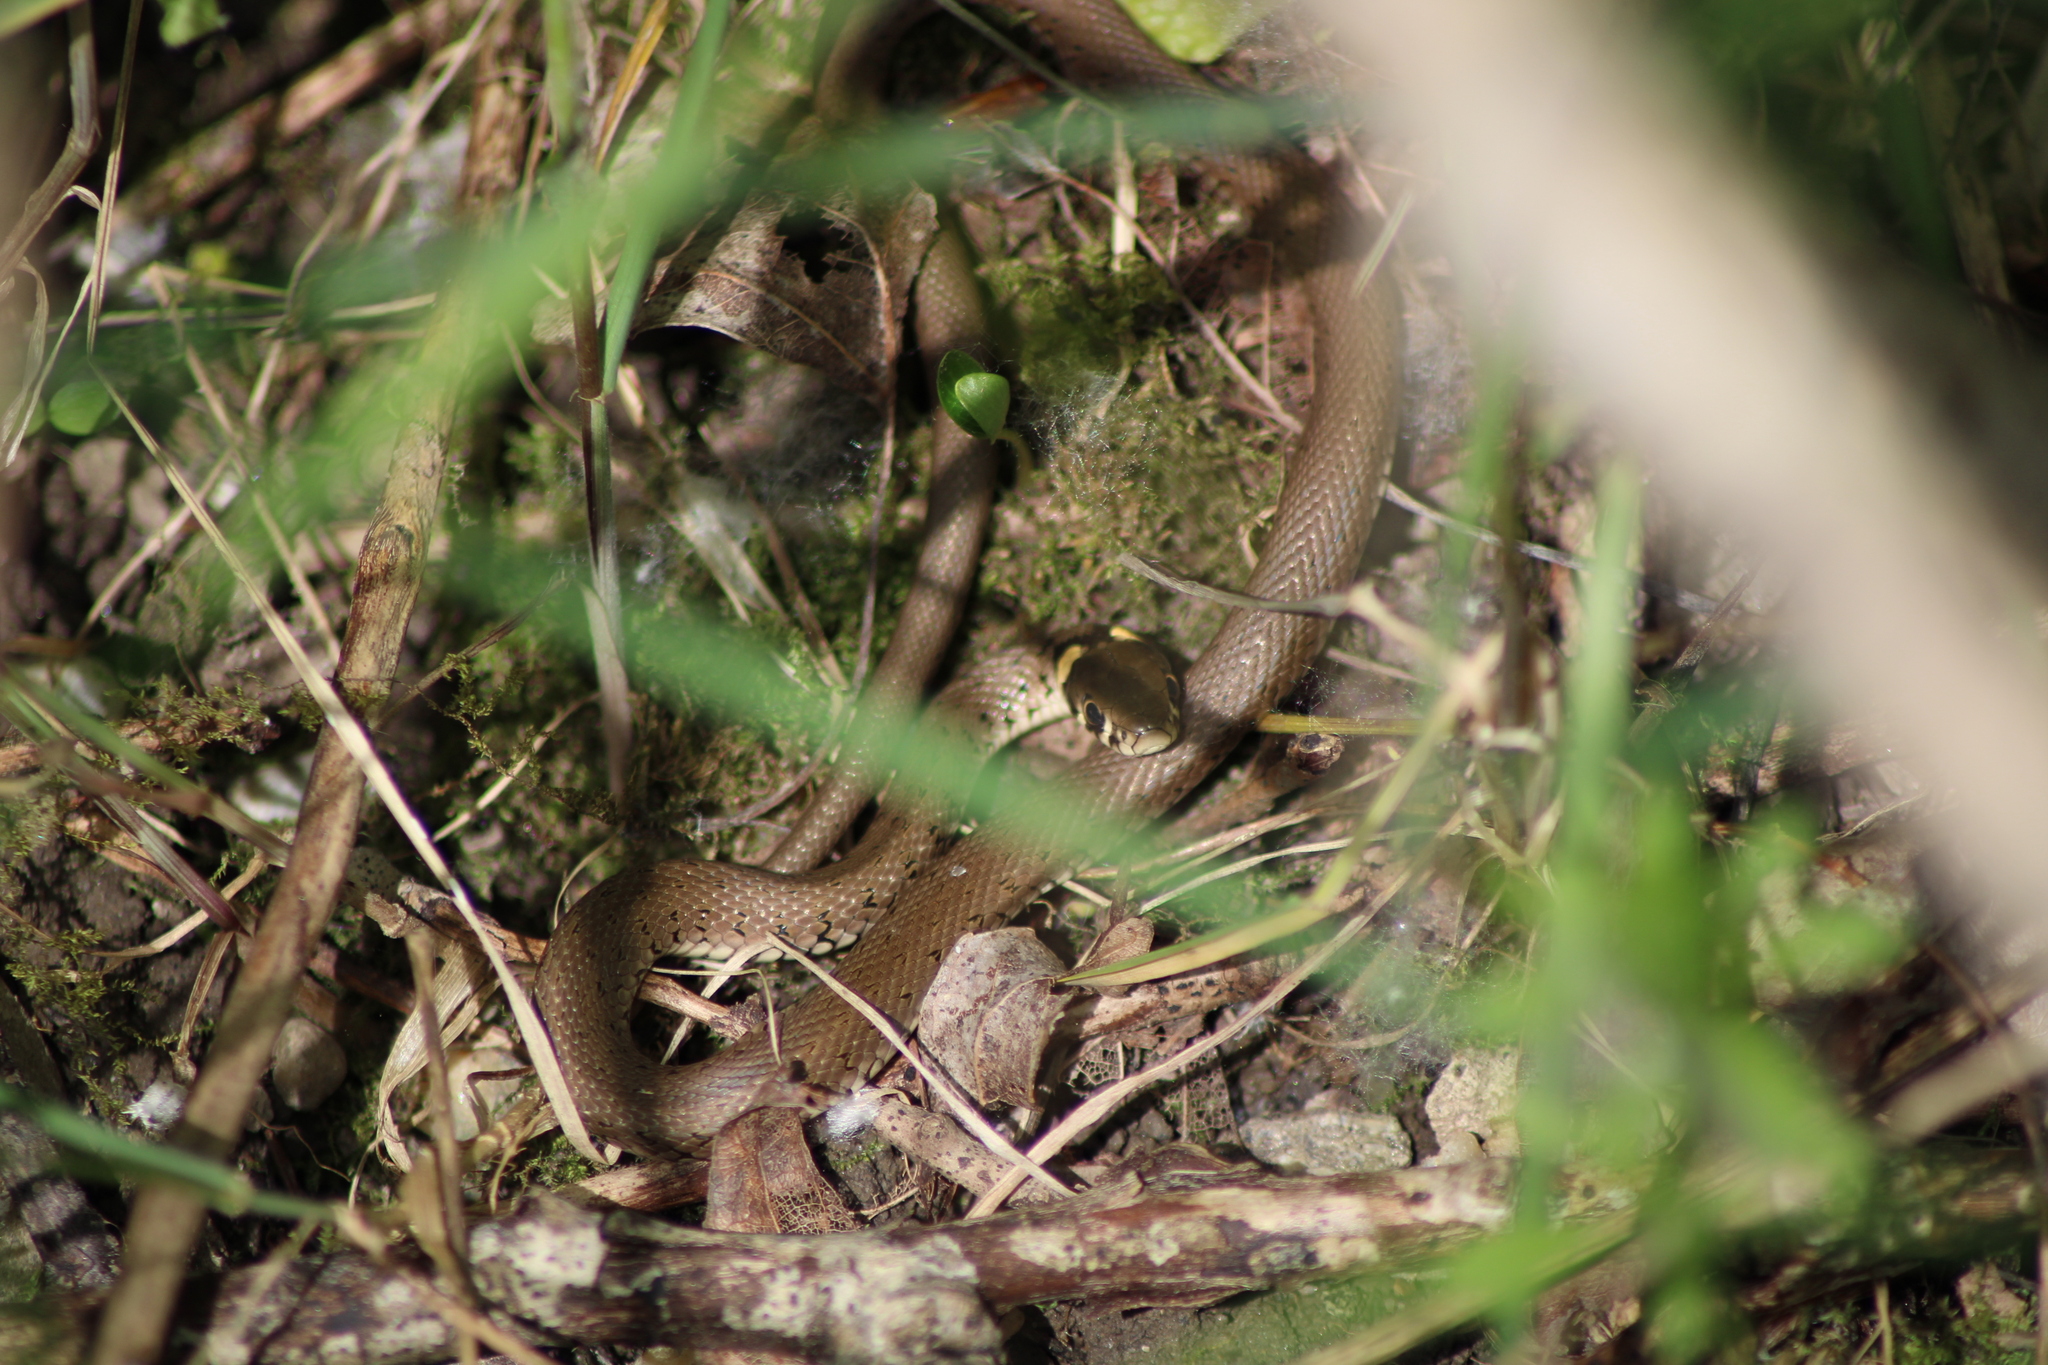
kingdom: Animalia
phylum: Chordata
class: Squamata
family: Colubridae
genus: Natrix
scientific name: Natrix natrix
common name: Grass snake
